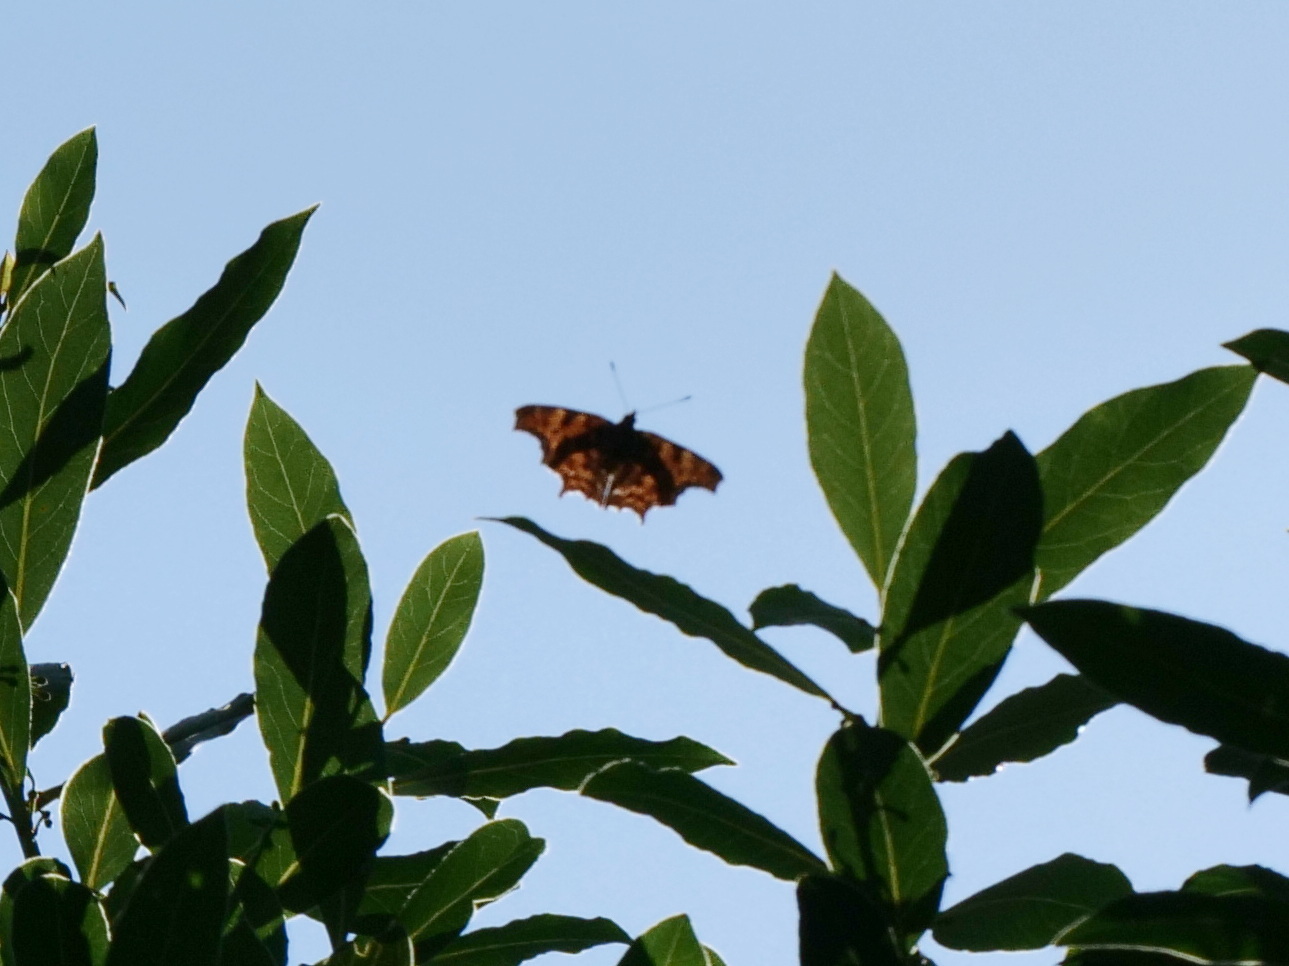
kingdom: Animalia
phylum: Arthropoda
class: Insecta
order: Lepidoptera
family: Nymphalidae
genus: Polygonia
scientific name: Polygonia c-album
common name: Comma
